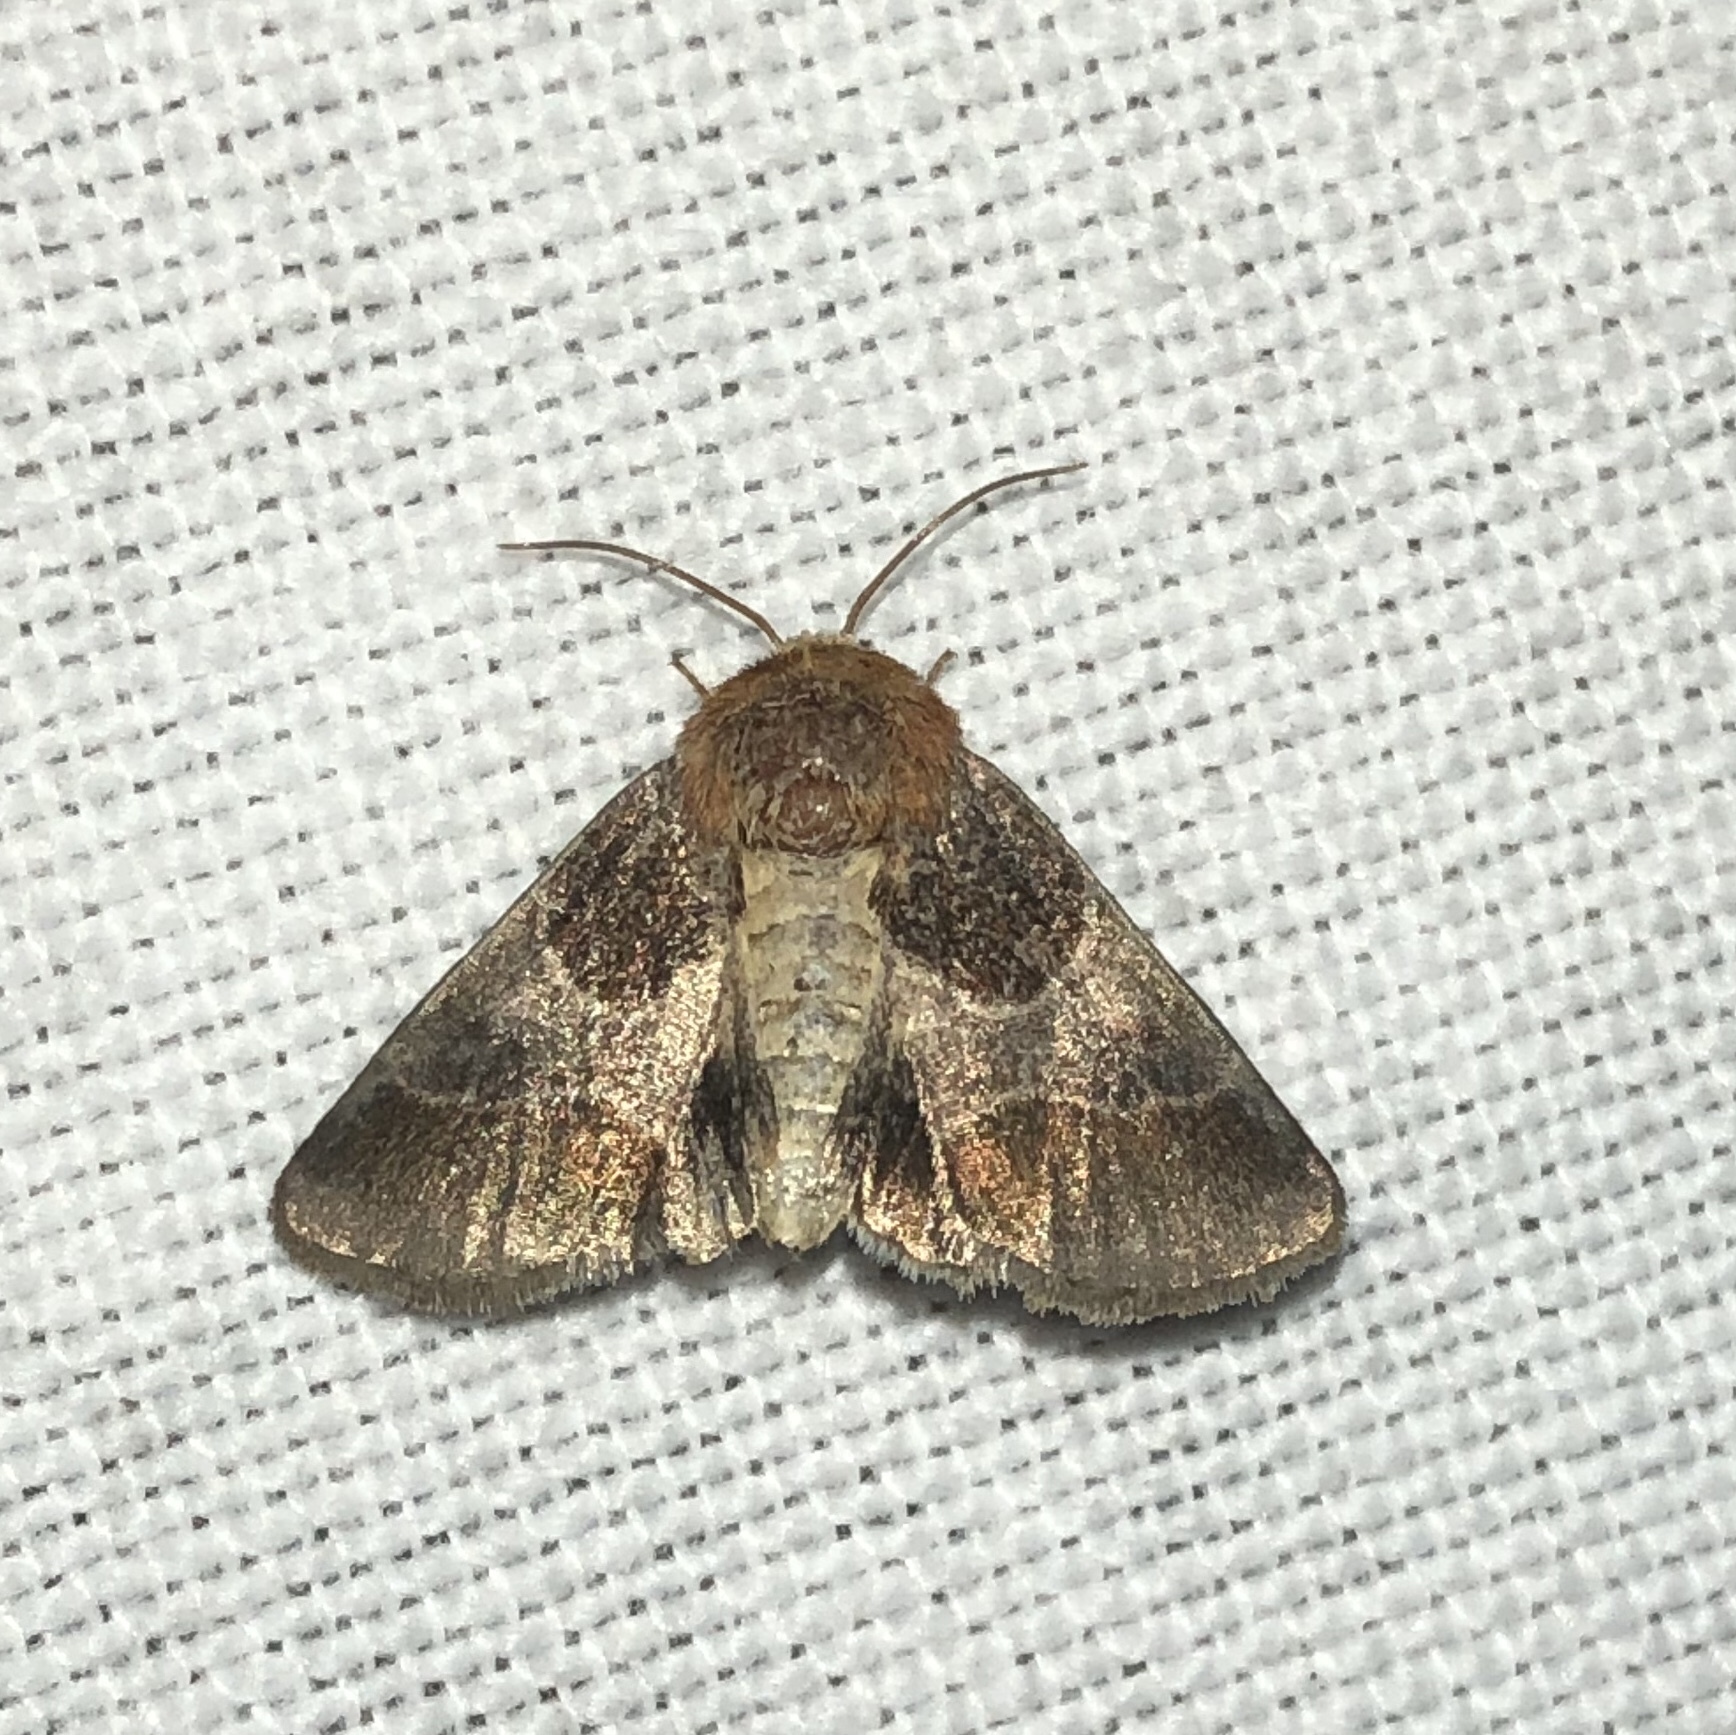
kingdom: Animalia
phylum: Arthropoda
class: Insecta
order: Lepidoptera
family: Noctuidae
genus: Schinia
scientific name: Schinia arcigera
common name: Arcigera flower moth
